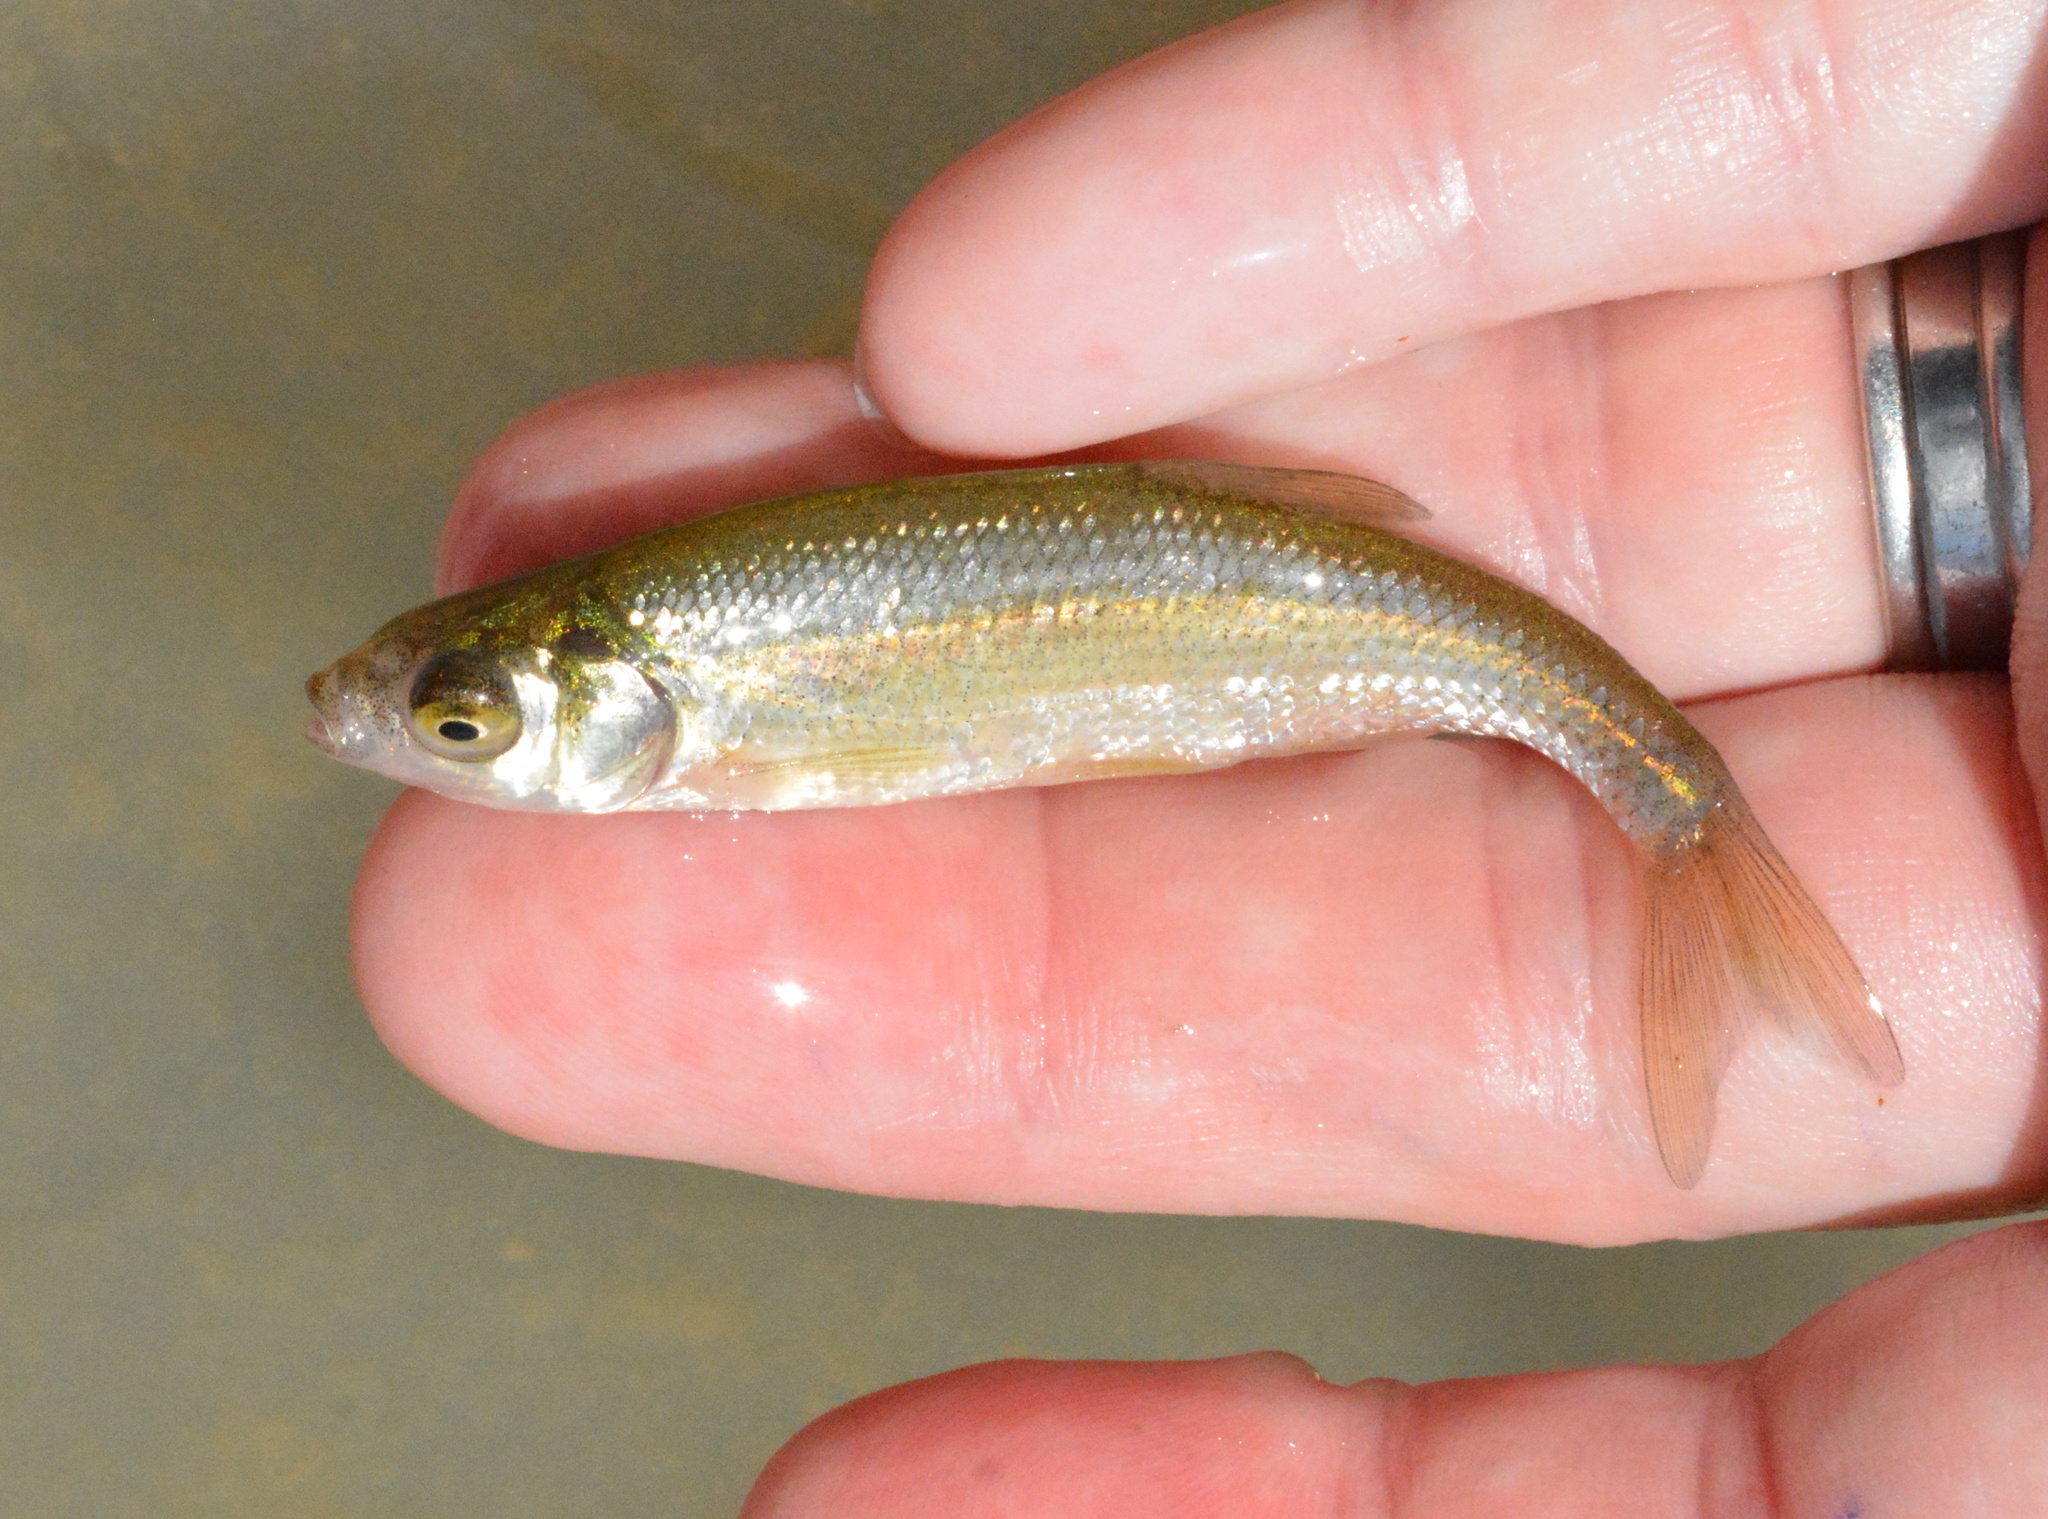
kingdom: Animalia
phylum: Chordata
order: Cypriniformes
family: Cyprinidae
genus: Notemigonus
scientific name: Notemigonus crysoleucas
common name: Golden shiner
